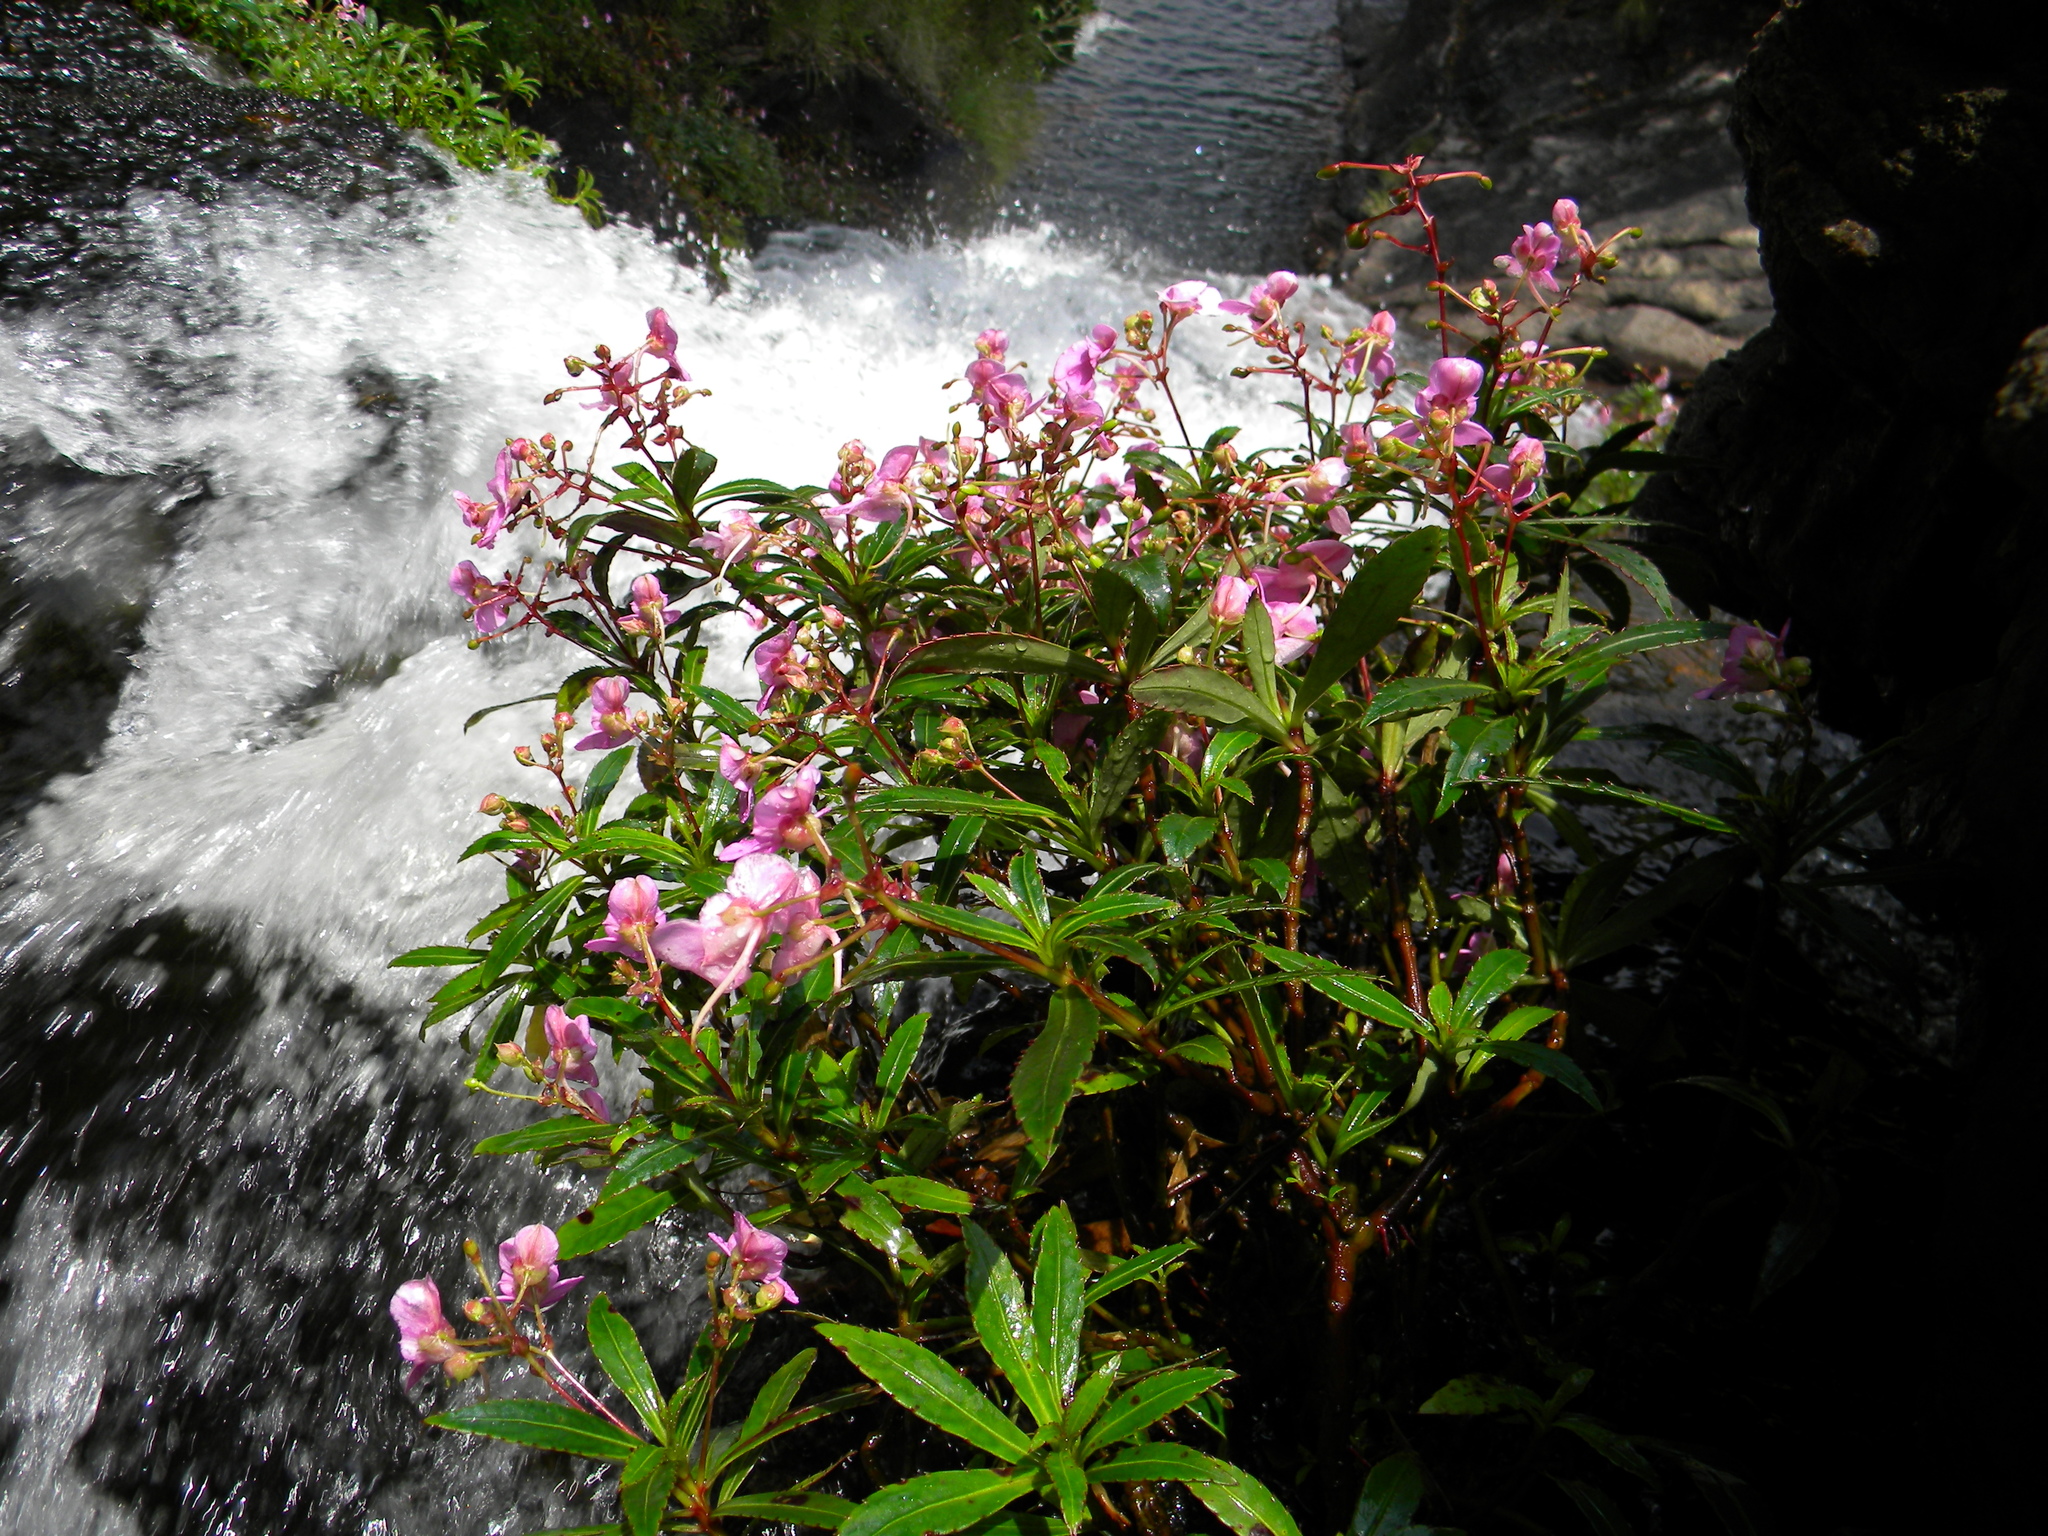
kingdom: Plantae
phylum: Tracheophyta
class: Magnoliopsida
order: Ericales
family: Balsaminaceae
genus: Impatiens
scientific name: Impatiens tangachee
